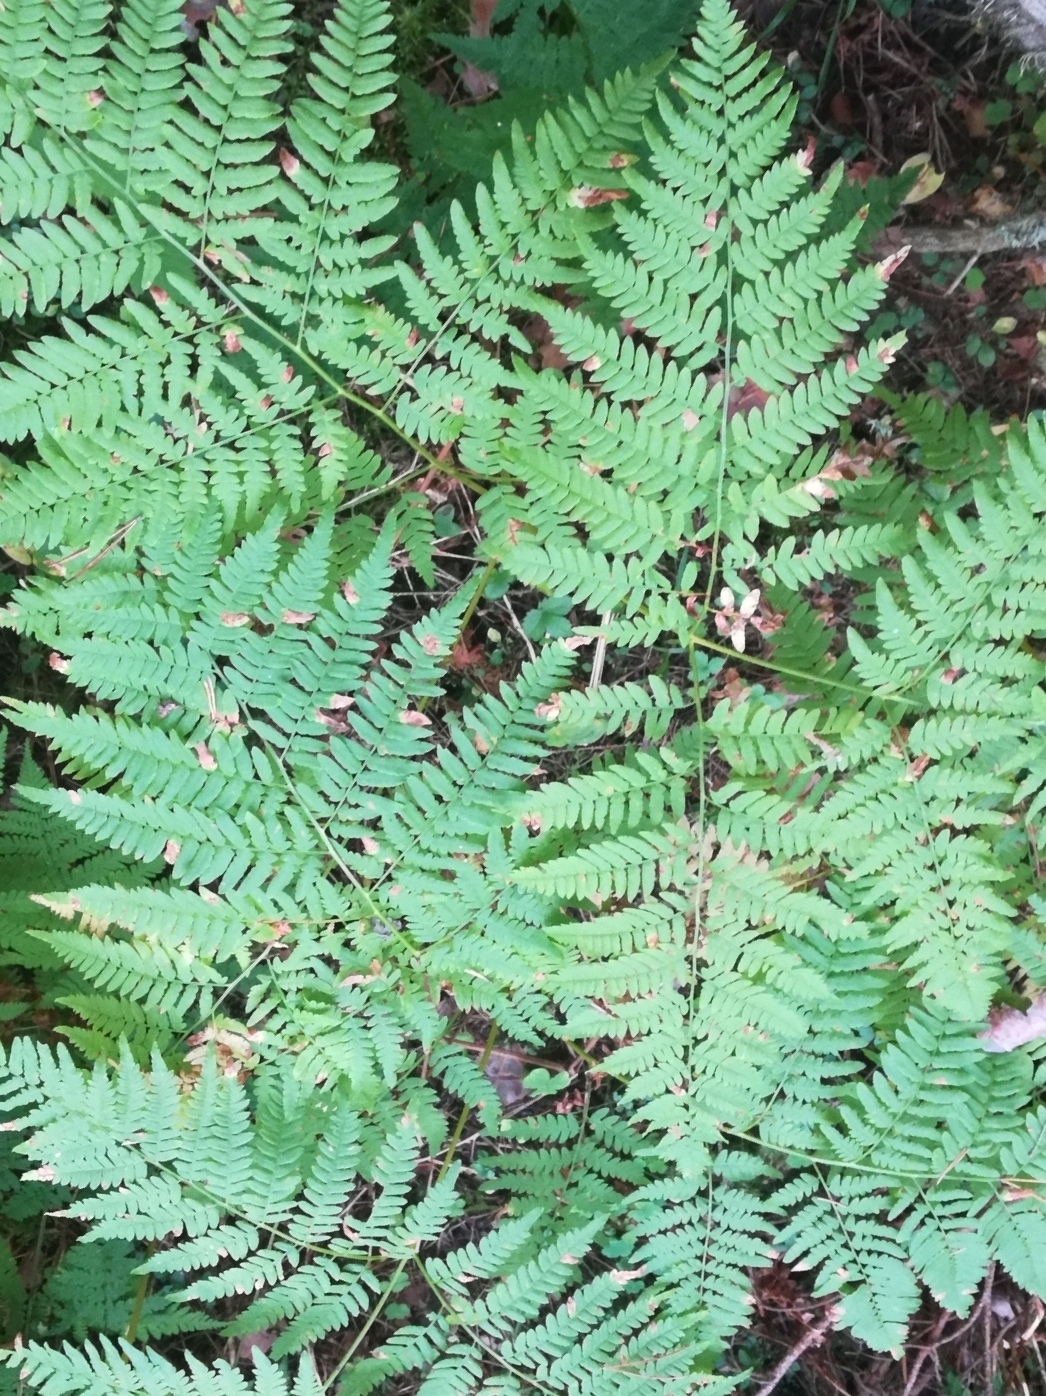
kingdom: Plantae
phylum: Tracheophyta
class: Polypodiopsida
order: Polypodiales
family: Dennstaedtiaceae
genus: Pteridium
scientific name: Pteridium aquilinum
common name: Bracken
